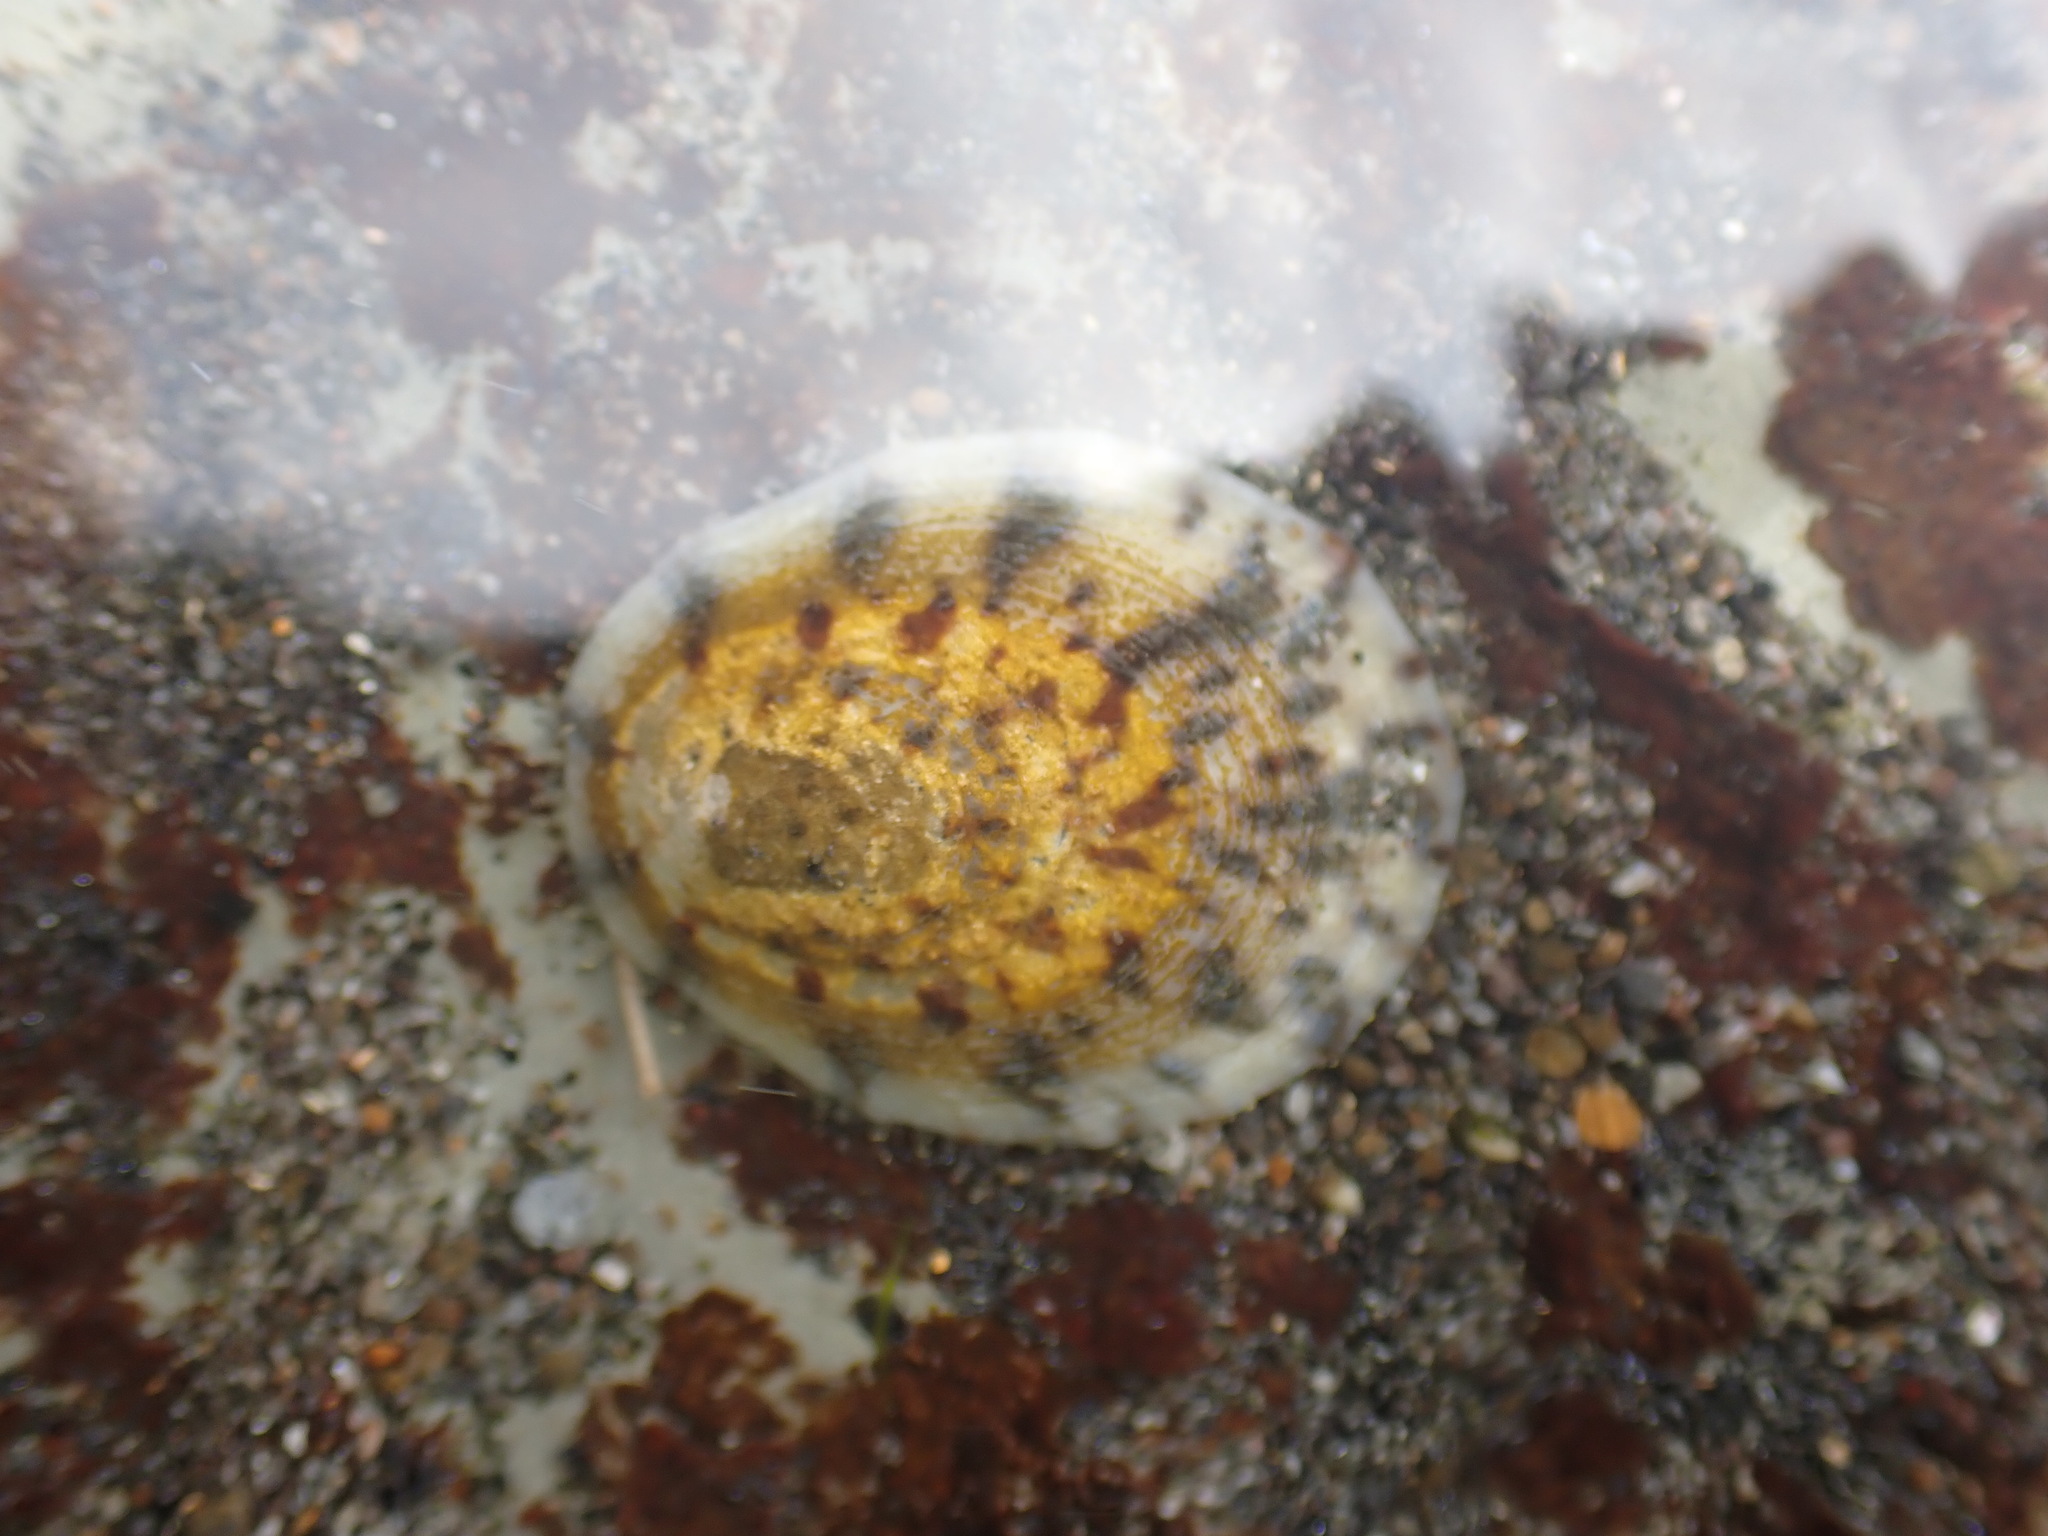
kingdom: Animalia
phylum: Mollusca
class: Gastropoda
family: Nacellidae
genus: Cellana
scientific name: Cellana radians
